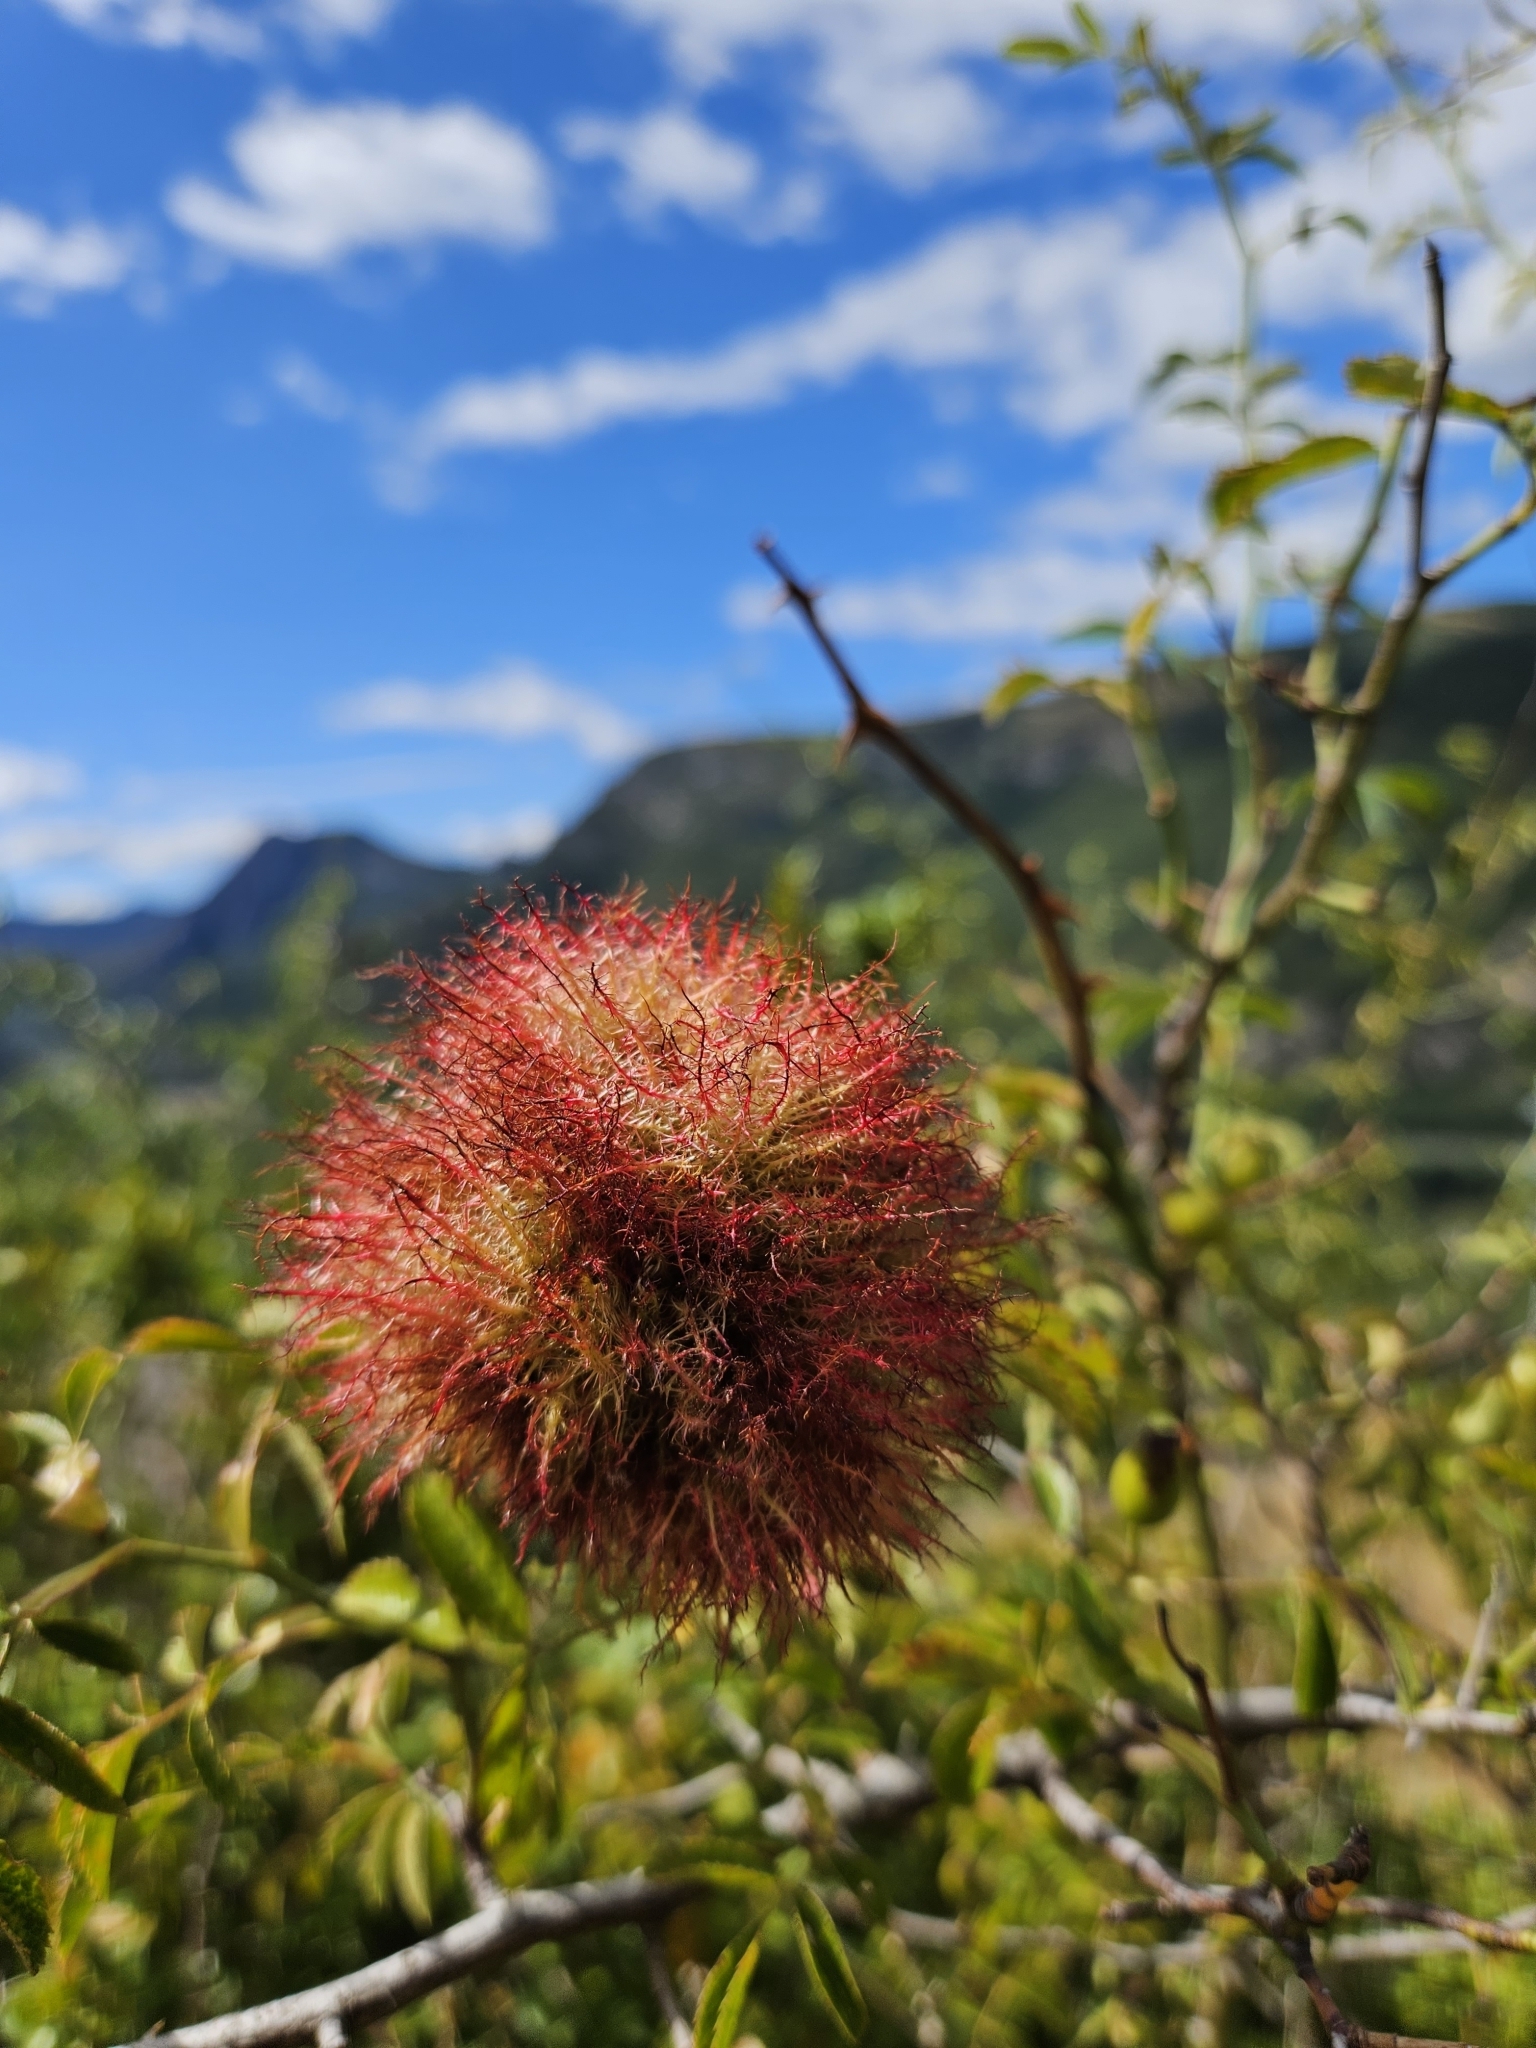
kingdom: Animalia
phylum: Arthropoda
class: Insecta
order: Hymenoptera
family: Cynipidae
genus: Diplolepis
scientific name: Diplolepis rosae
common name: Bedeguar gall
